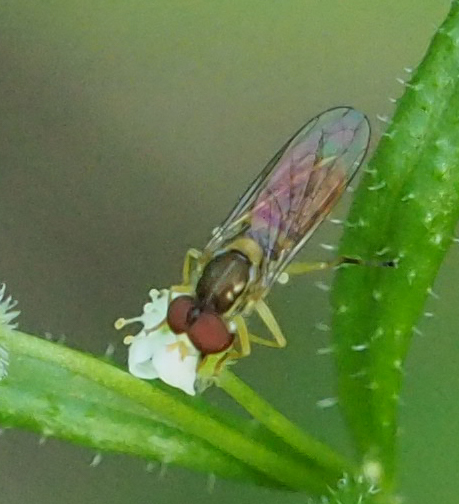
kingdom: Animalia
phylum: Arthropoda
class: Insecta
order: Diptera
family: Syrphidae
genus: Toxomerus
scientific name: Toxomerus marginatus
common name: Syrphid fly
